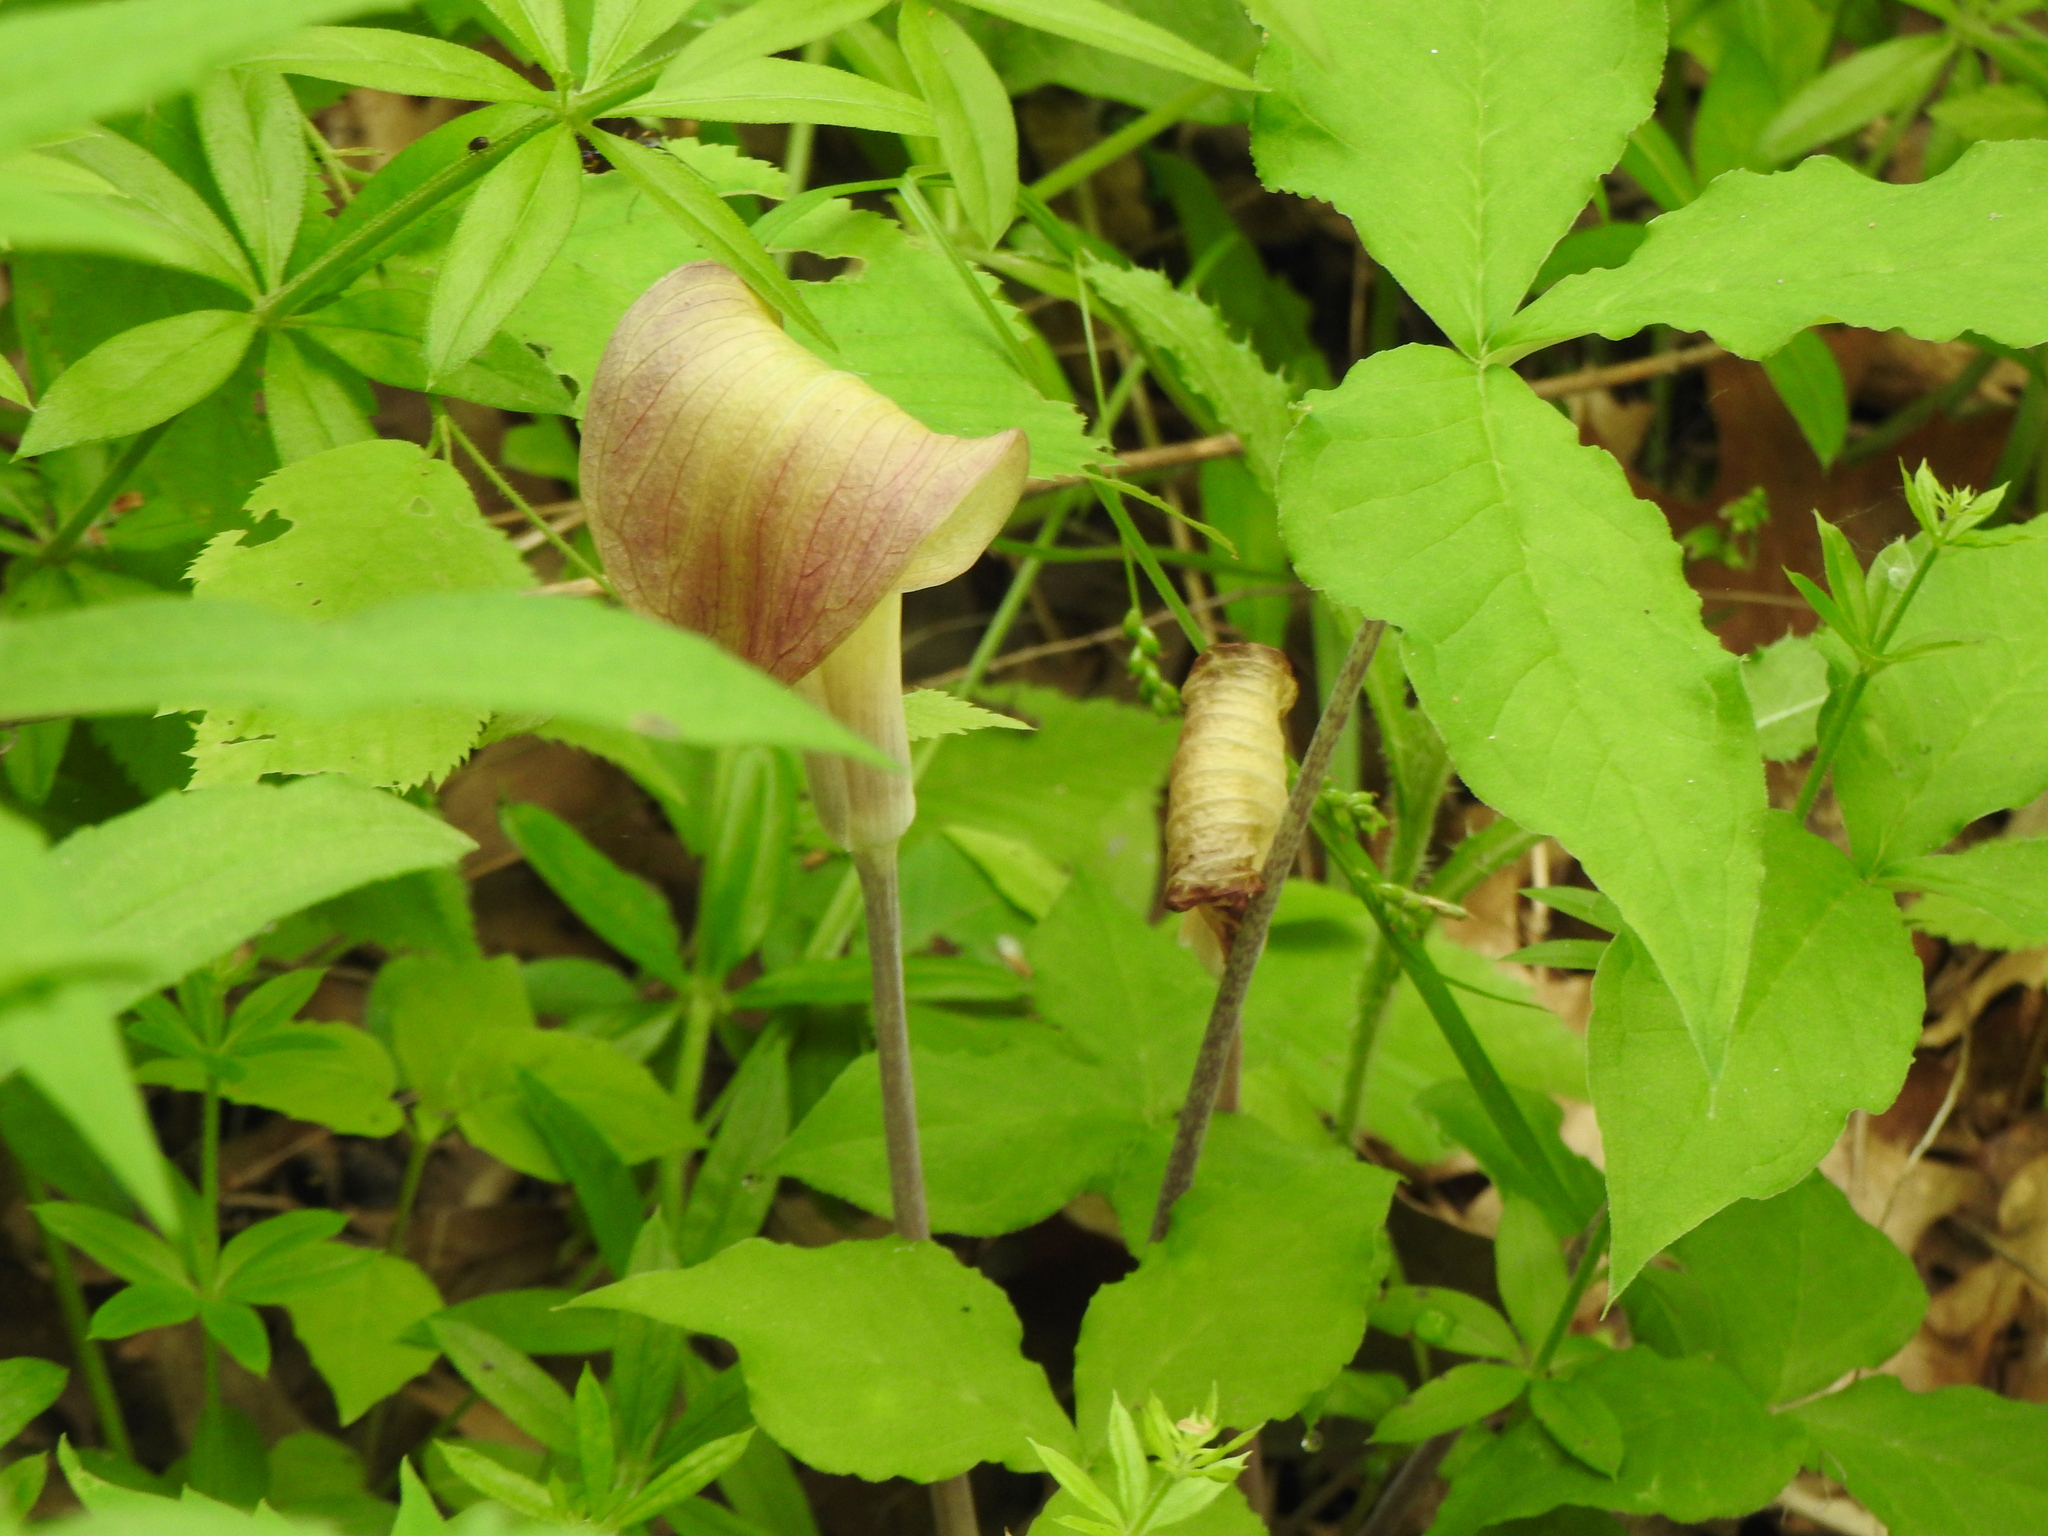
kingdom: Plantae
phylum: Tracheophyta
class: Liliopsida
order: Alismatales
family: Araceae
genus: Arisaema
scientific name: Arisaema triphyllum
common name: Jack-in-the-pulpit
